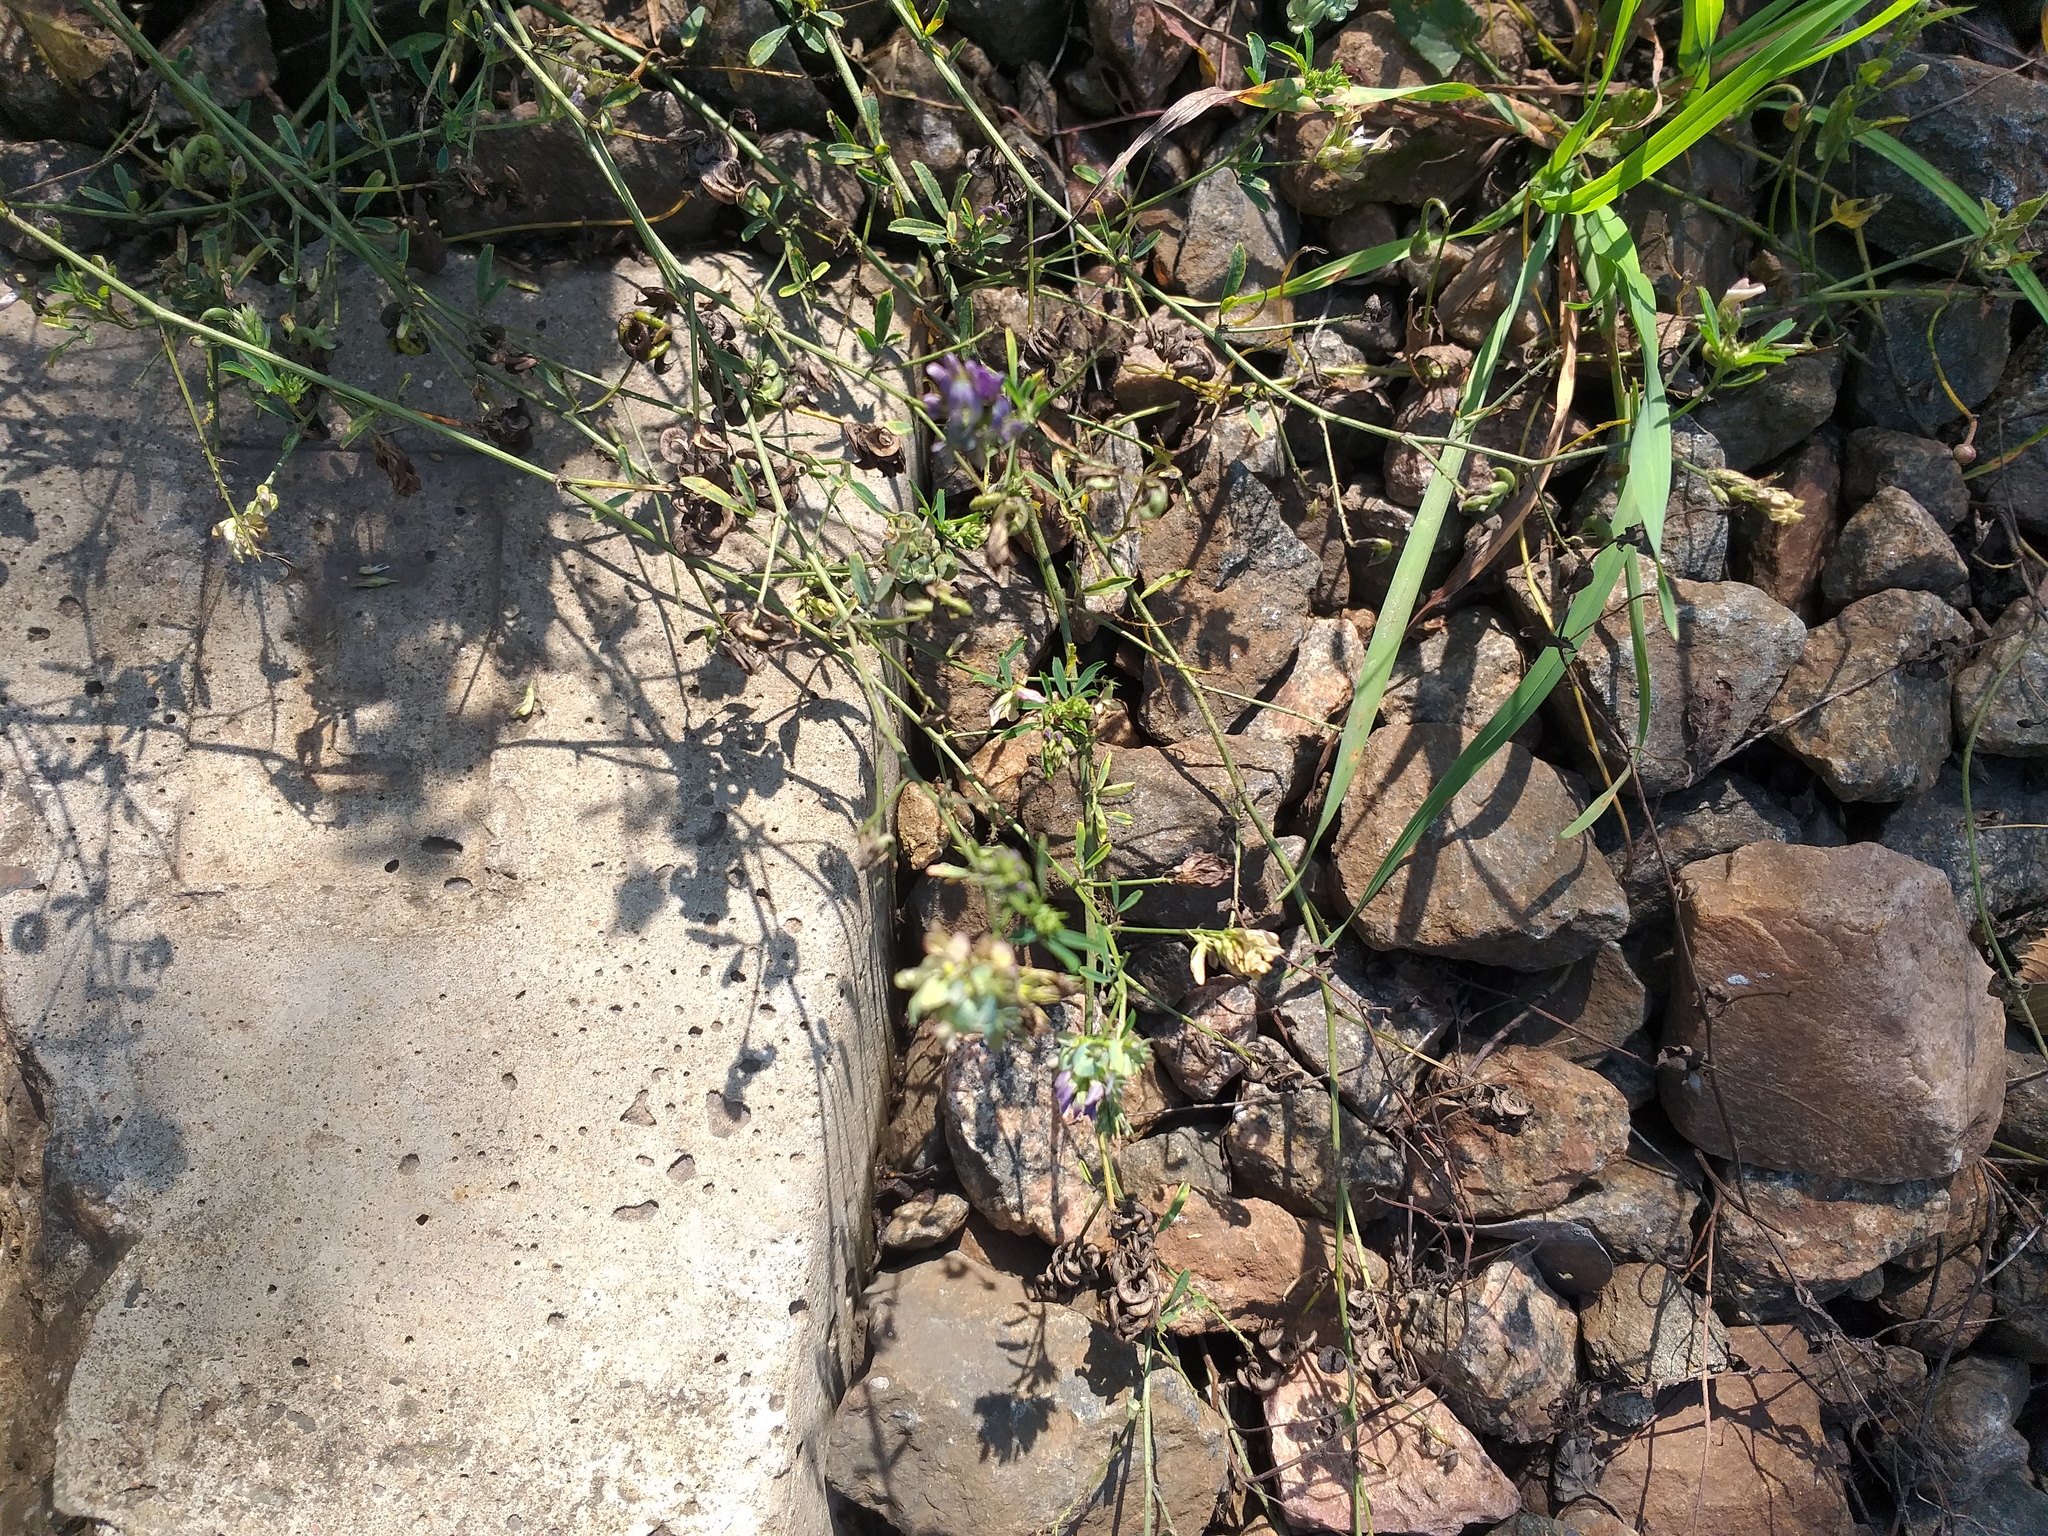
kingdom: Plantae
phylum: Tracheophyta
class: Magnoliopsida
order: Fabales
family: Fabaceae
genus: Medicago
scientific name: Medicago varia
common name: Sand lucerne
